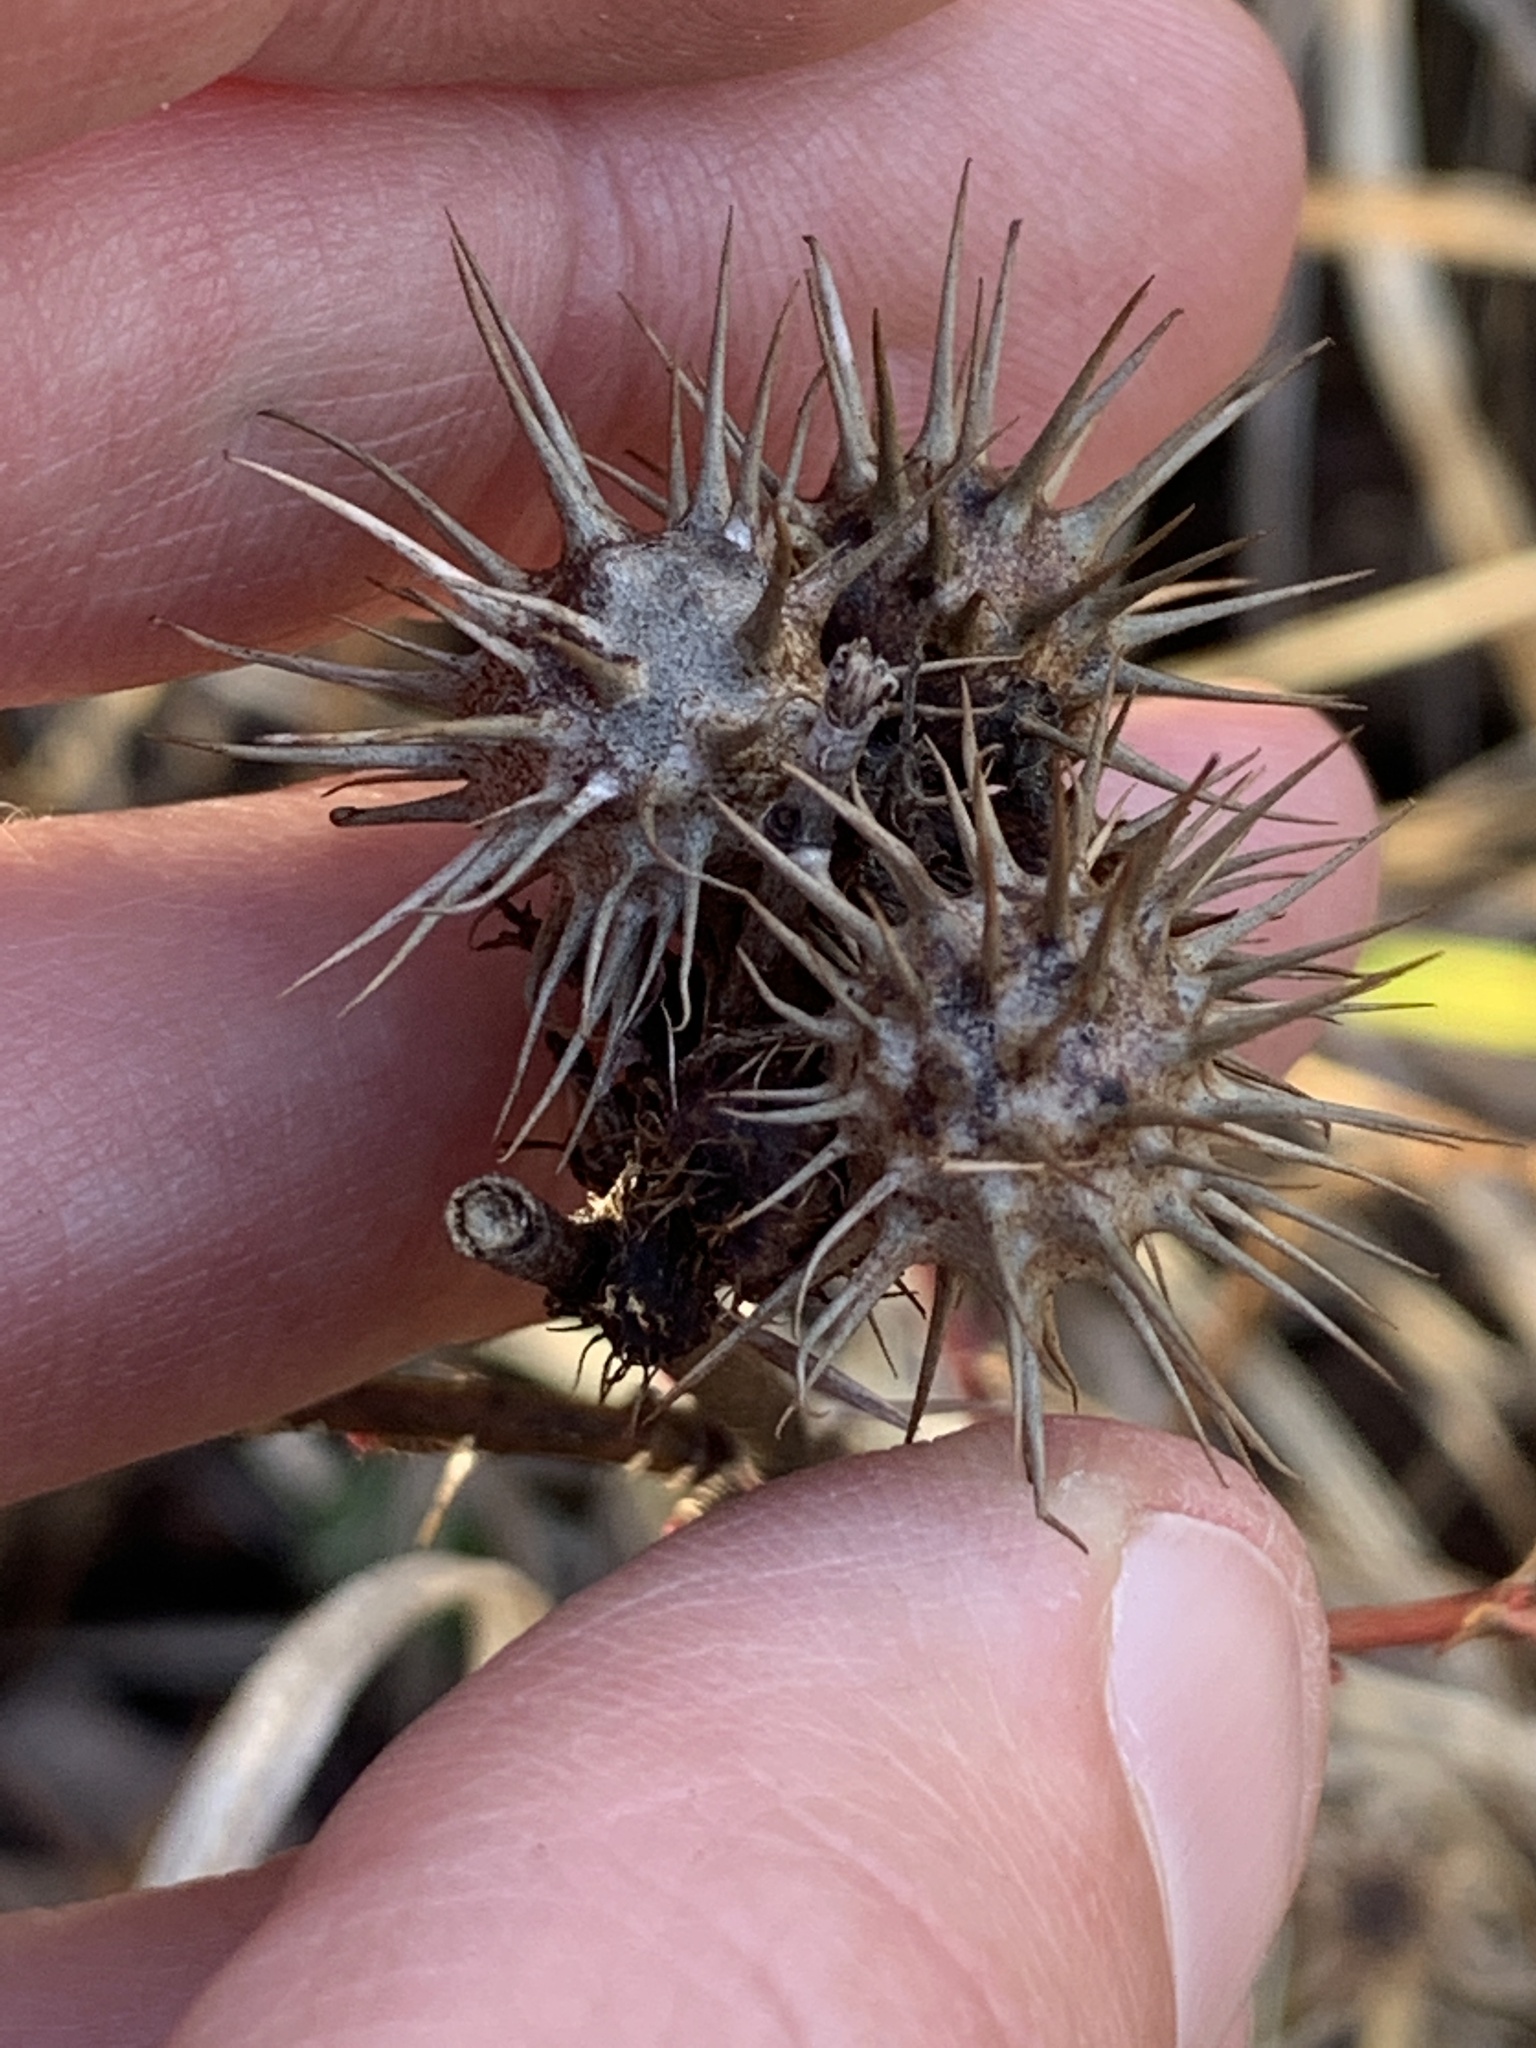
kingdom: Animalia
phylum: Arthropoda
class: Insecta
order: Hymenoptera
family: Cynipidae
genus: Diplolepis
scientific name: Diplolepis bicolor
